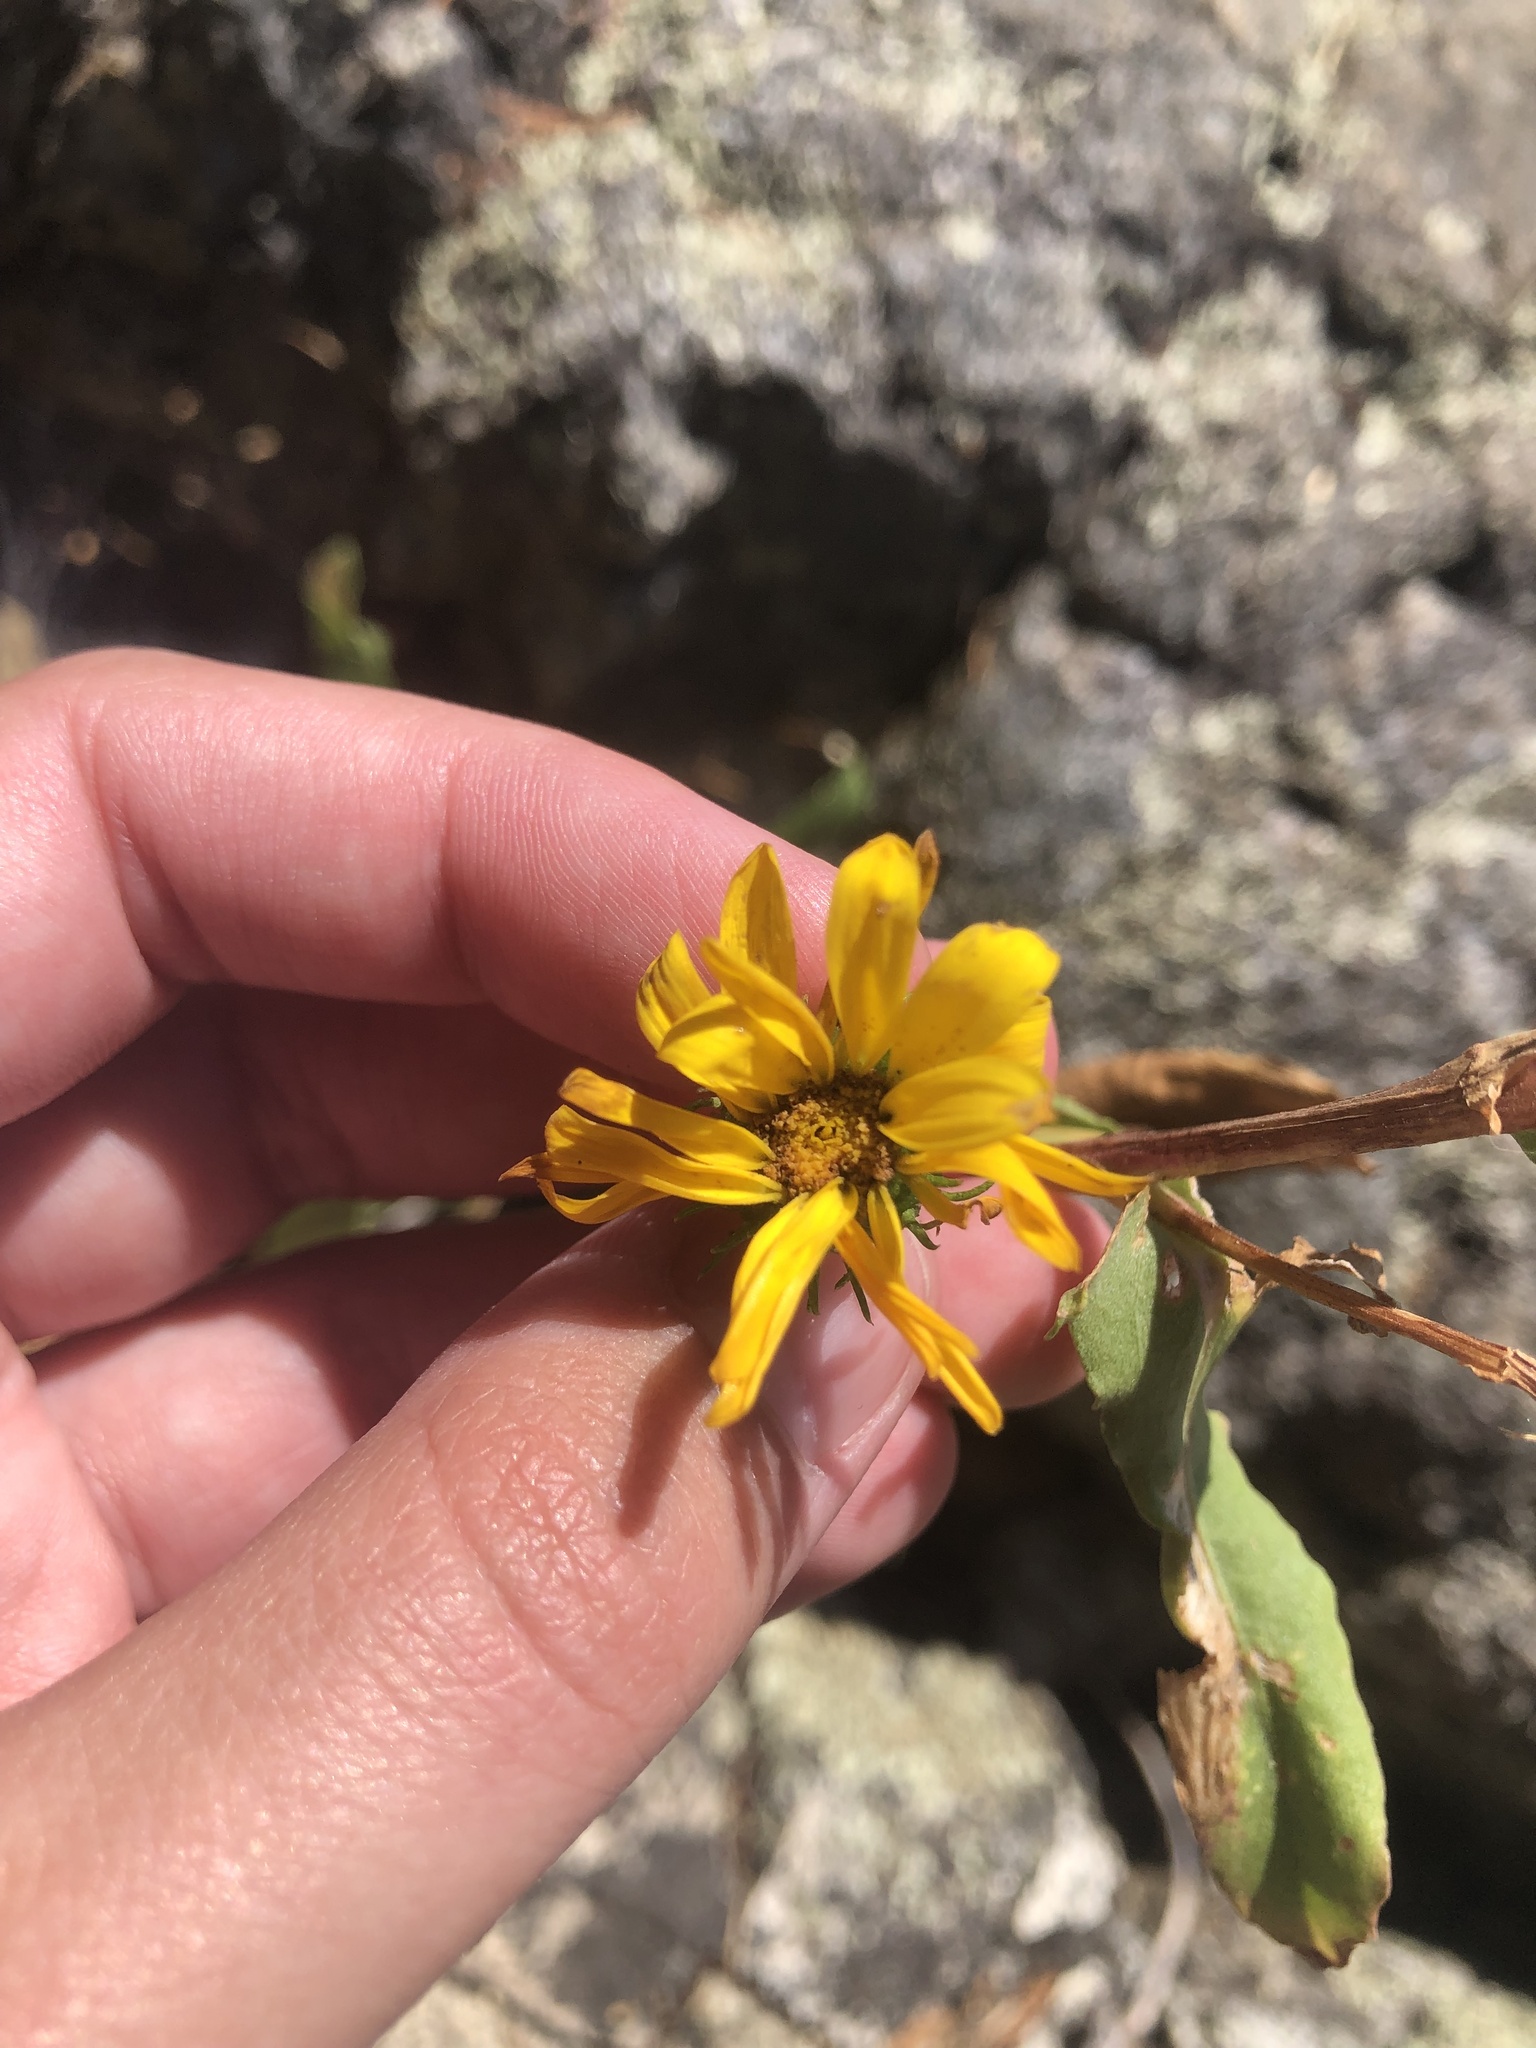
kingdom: Plantae
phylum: Tracheophyta
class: Magnoliopsida
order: Asterales
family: Asteraceae
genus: Grindelia
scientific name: Grindelia hirsutula
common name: Hairy gumweed
